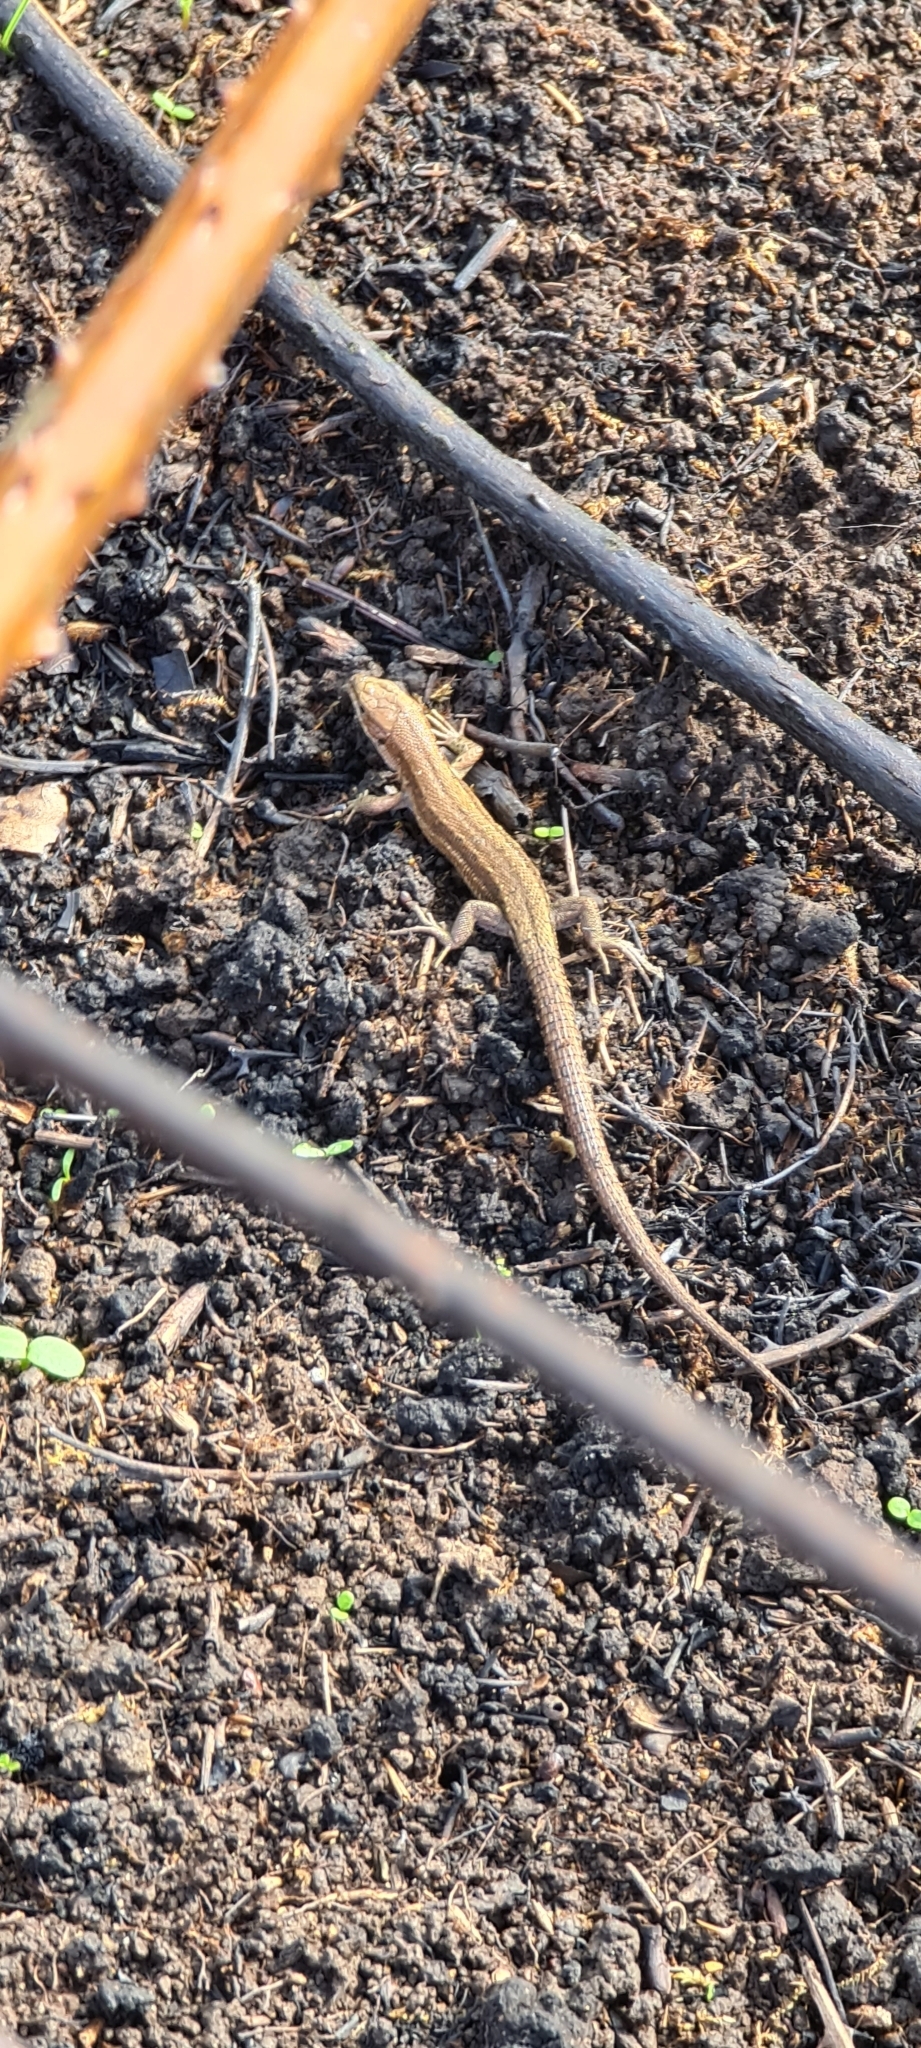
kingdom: Animalia
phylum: Chordata
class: Squamata
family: Lacertidae
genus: Zootoca
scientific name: Zootoca vivipara
